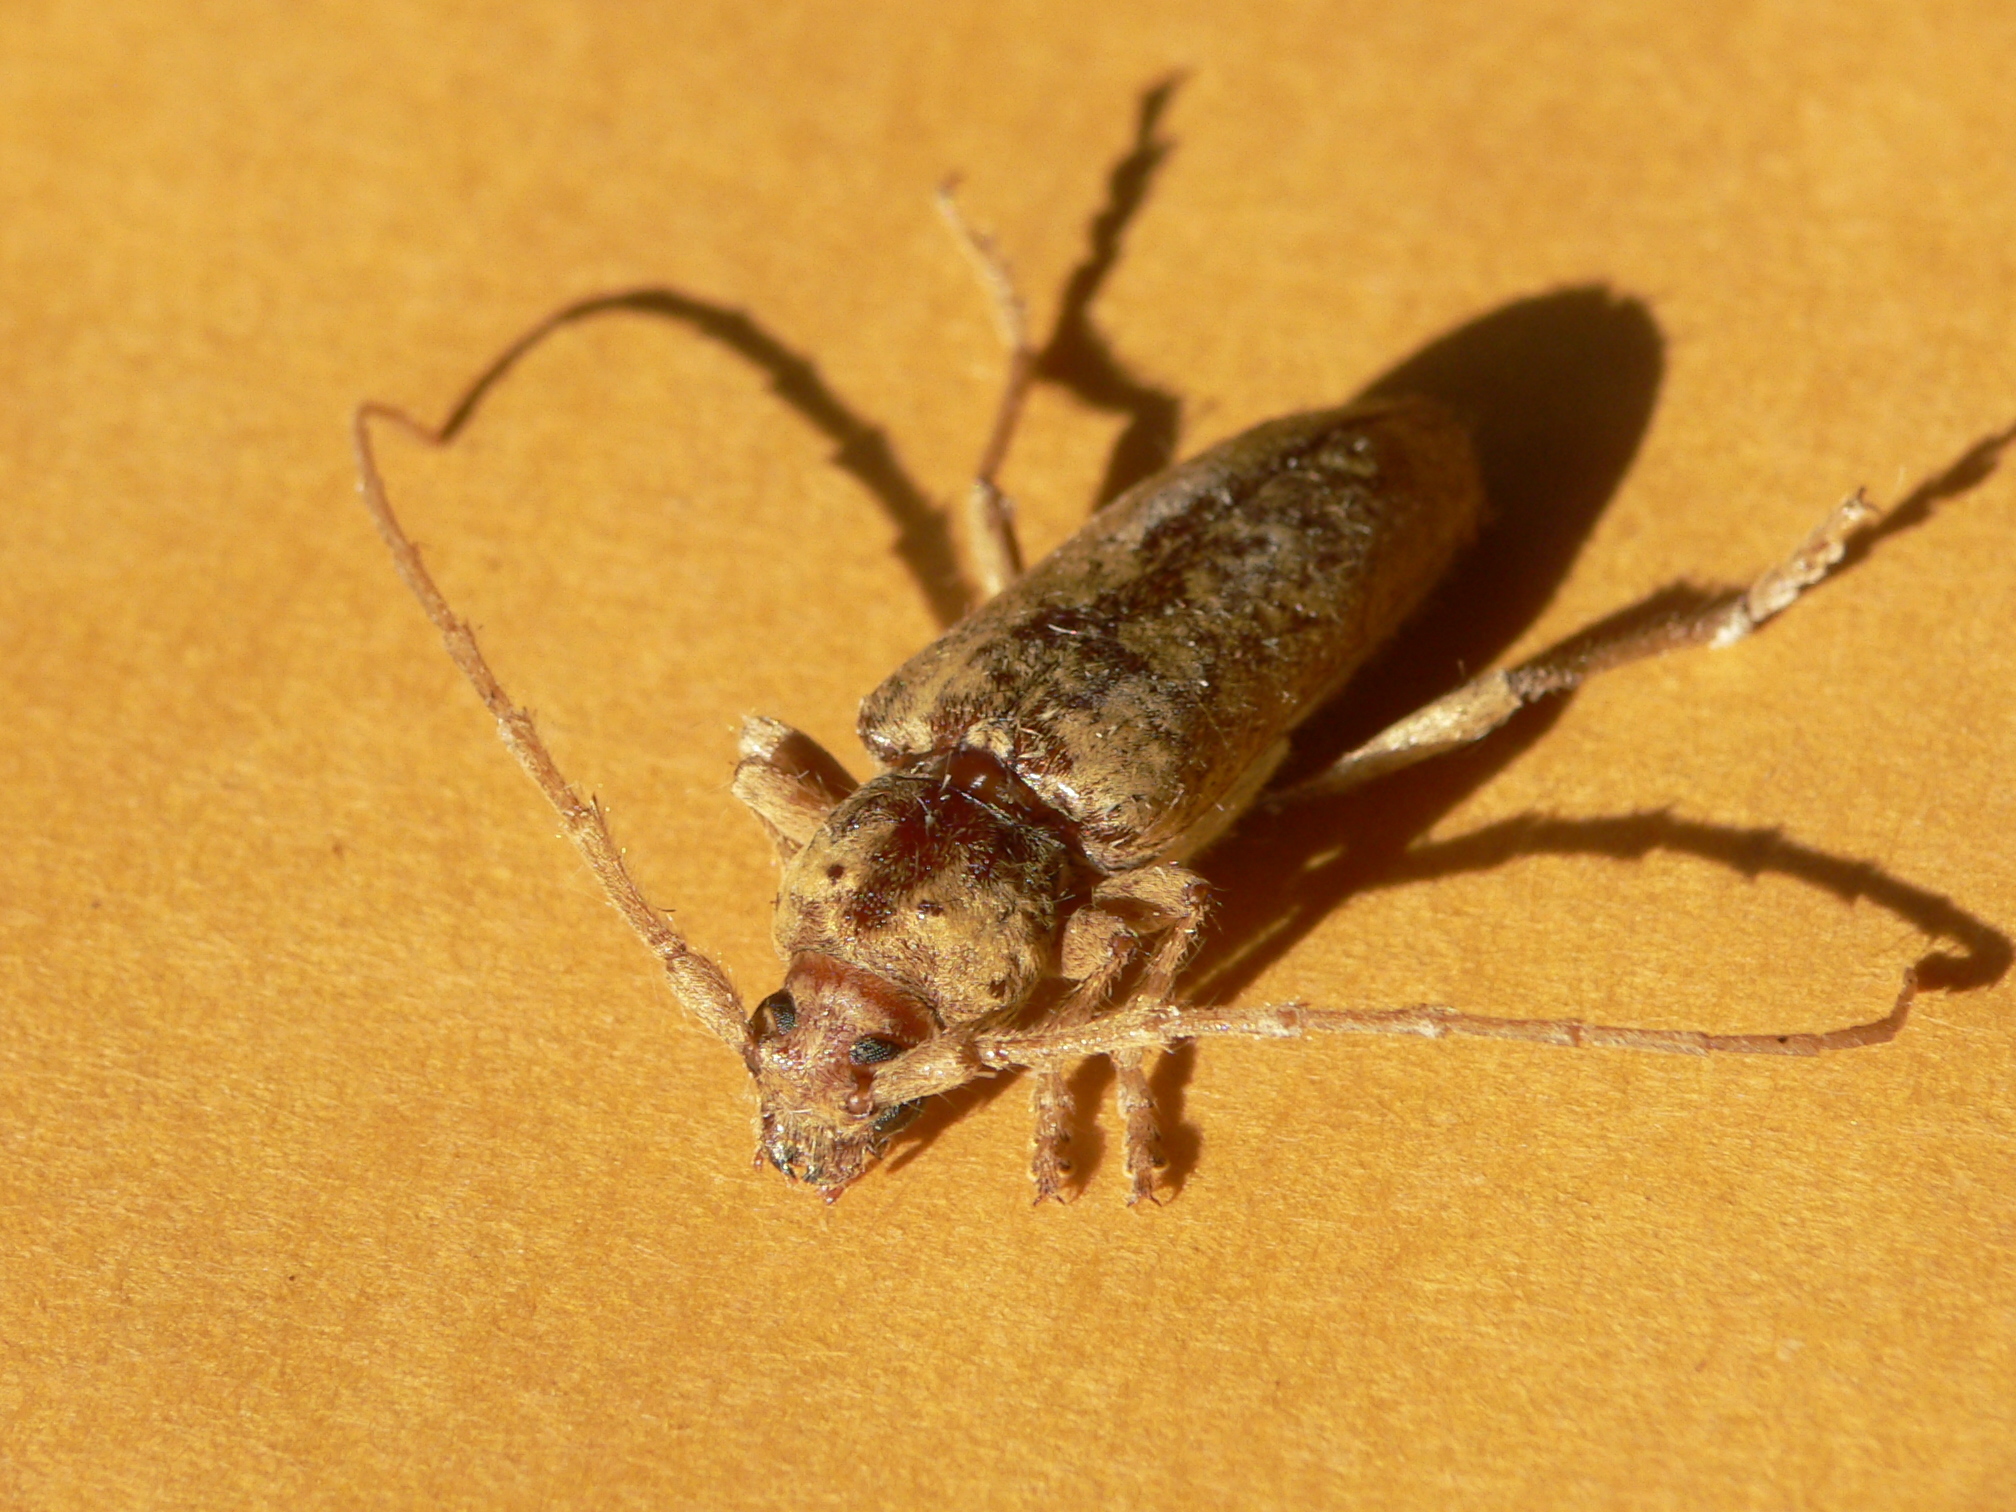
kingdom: Animalia
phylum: Arthropoda
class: Insecta
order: Coleoptera
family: Cerambycidae
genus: Enaphalodes
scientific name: Enaphalodes rufulus
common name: Red oak borer
